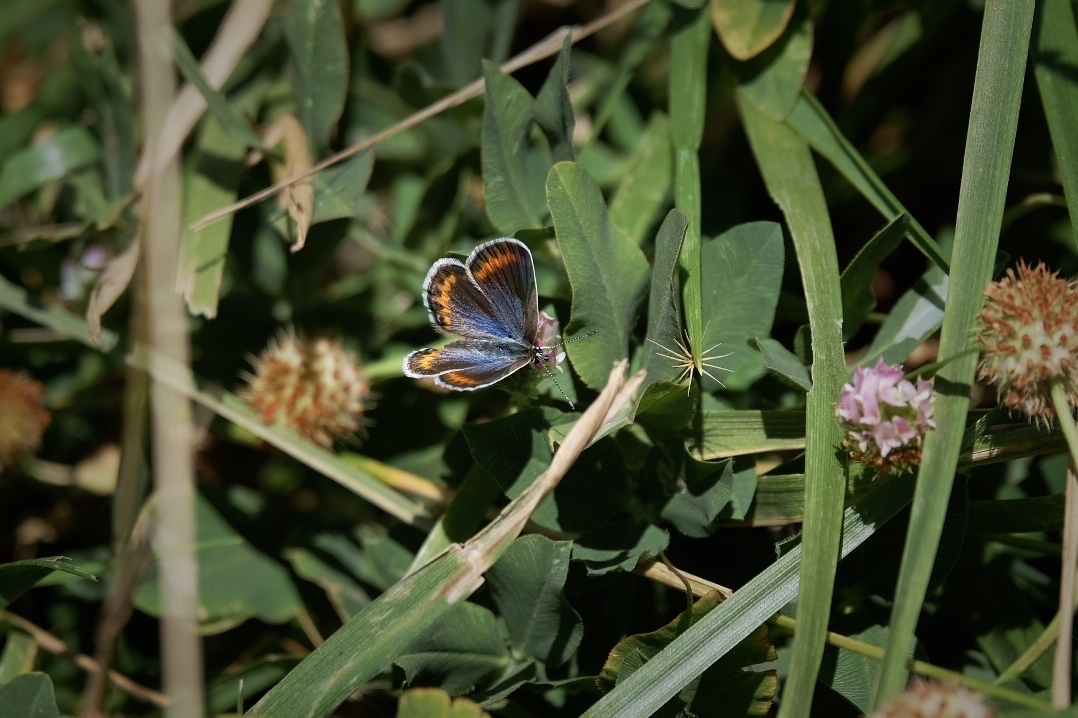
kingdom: Animalia
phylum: Arthropoda
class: Insecta
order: Lepidoptera
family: Lycaenidae
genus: Lycaeides
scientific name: Lycaeides melissa
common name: Melissa blue
